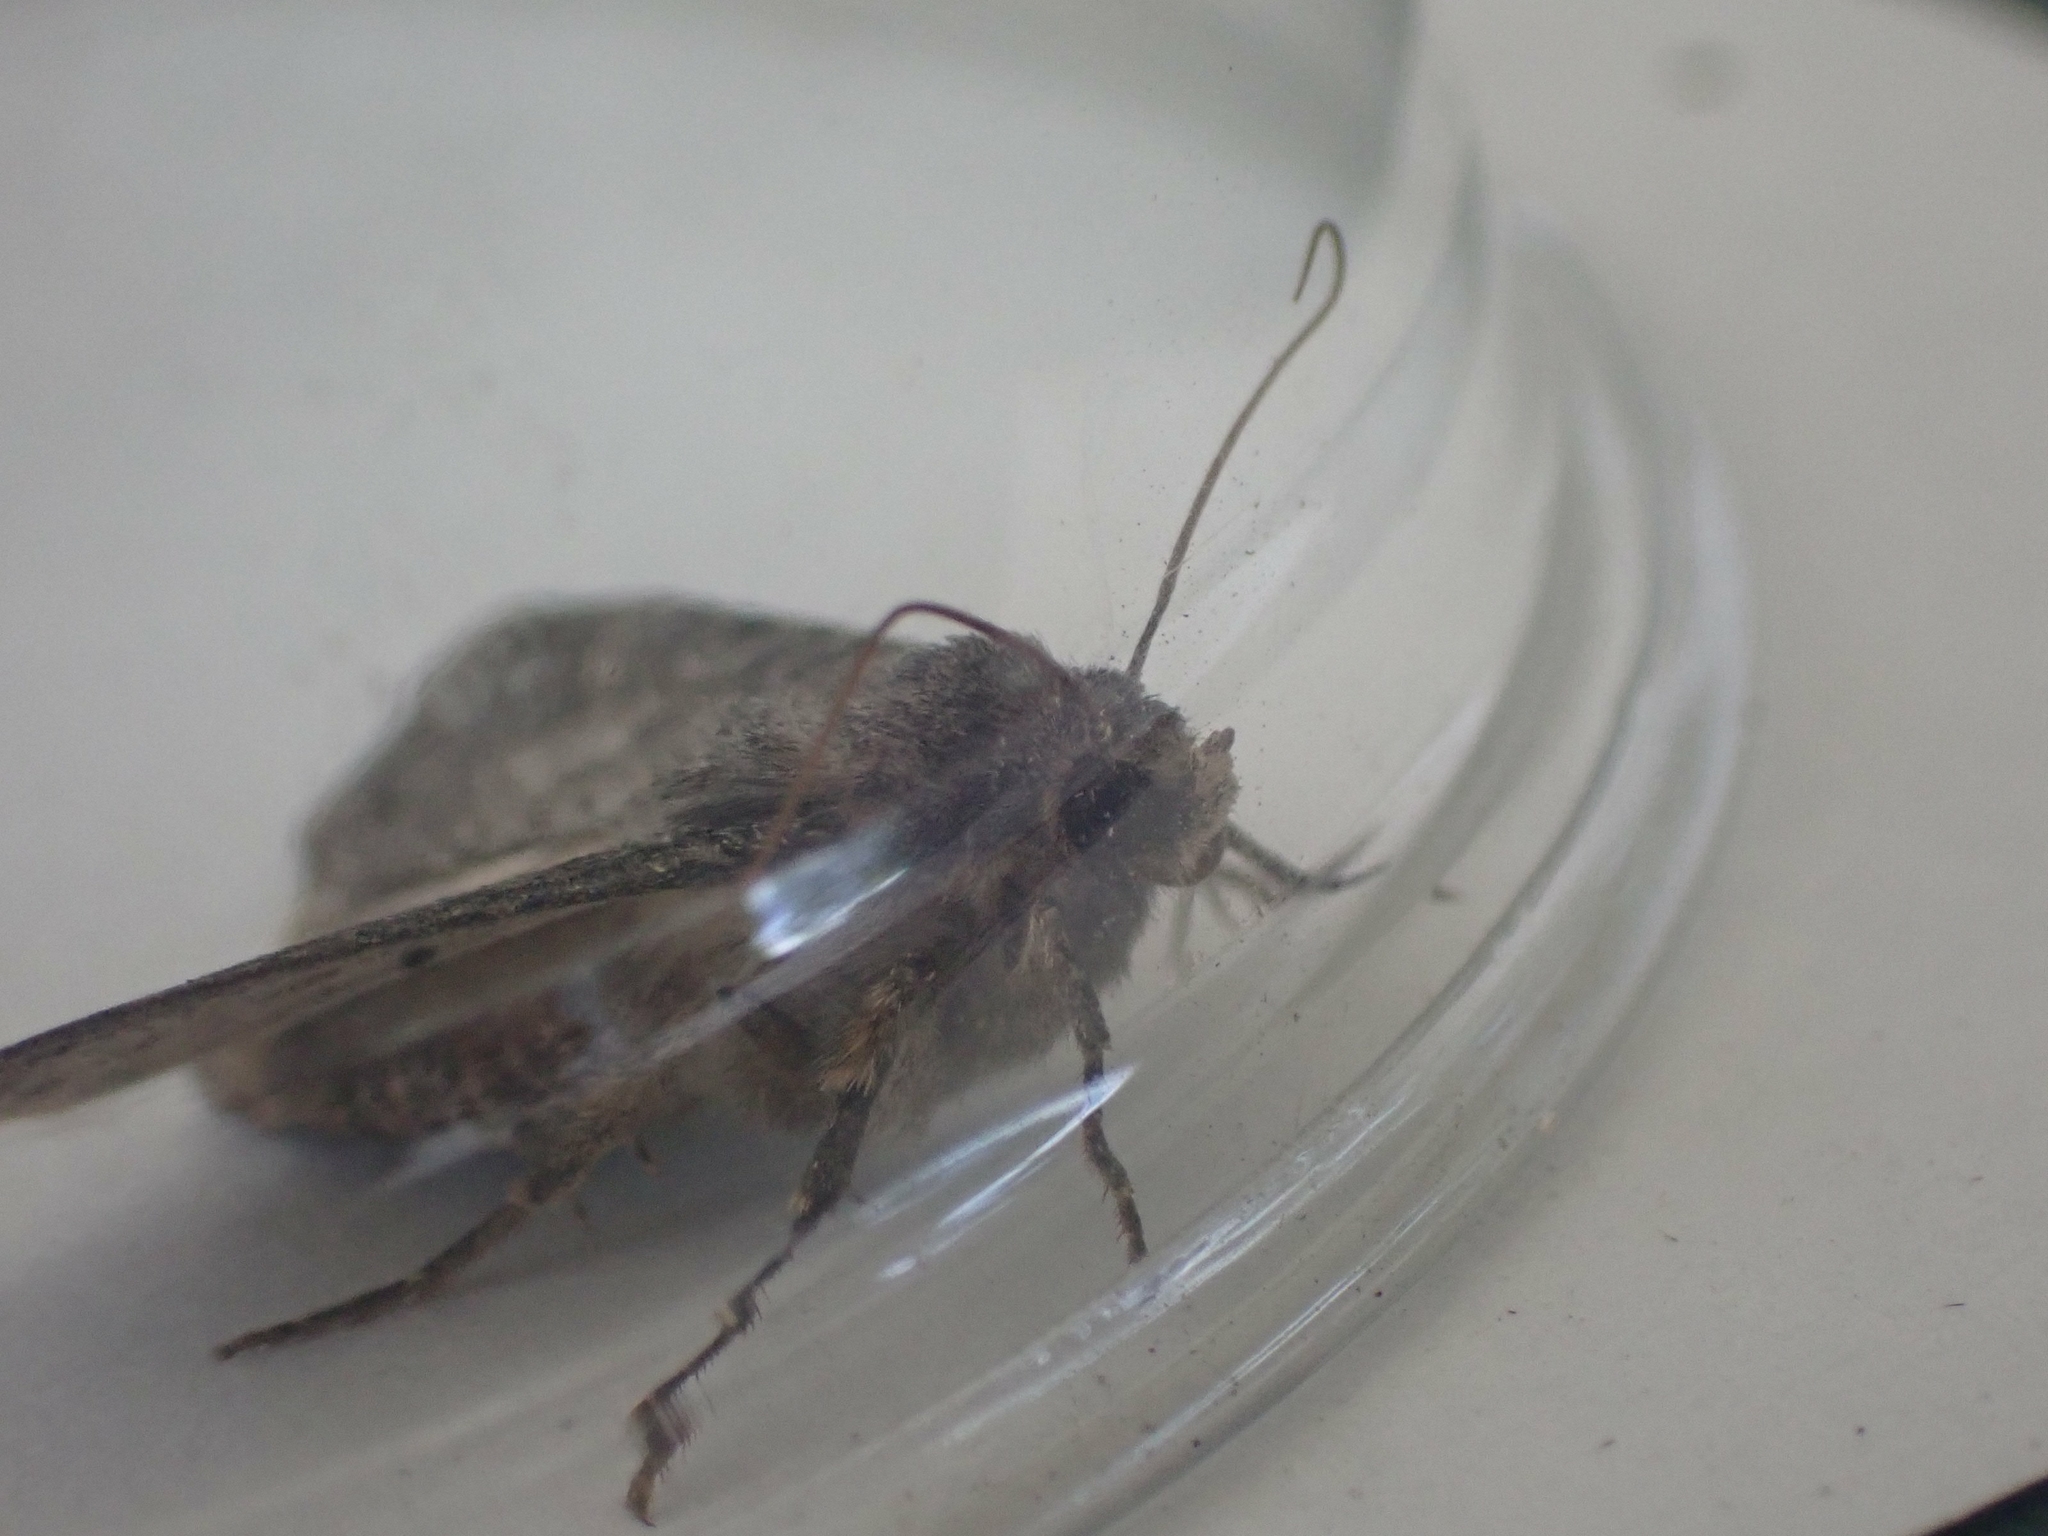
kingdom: Animalia
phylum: Arthropoda
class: Insecta
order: Lepidoptera
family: Noctuidae
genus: Apamea
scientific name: Apamea devastator
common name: Glassy cutworm
